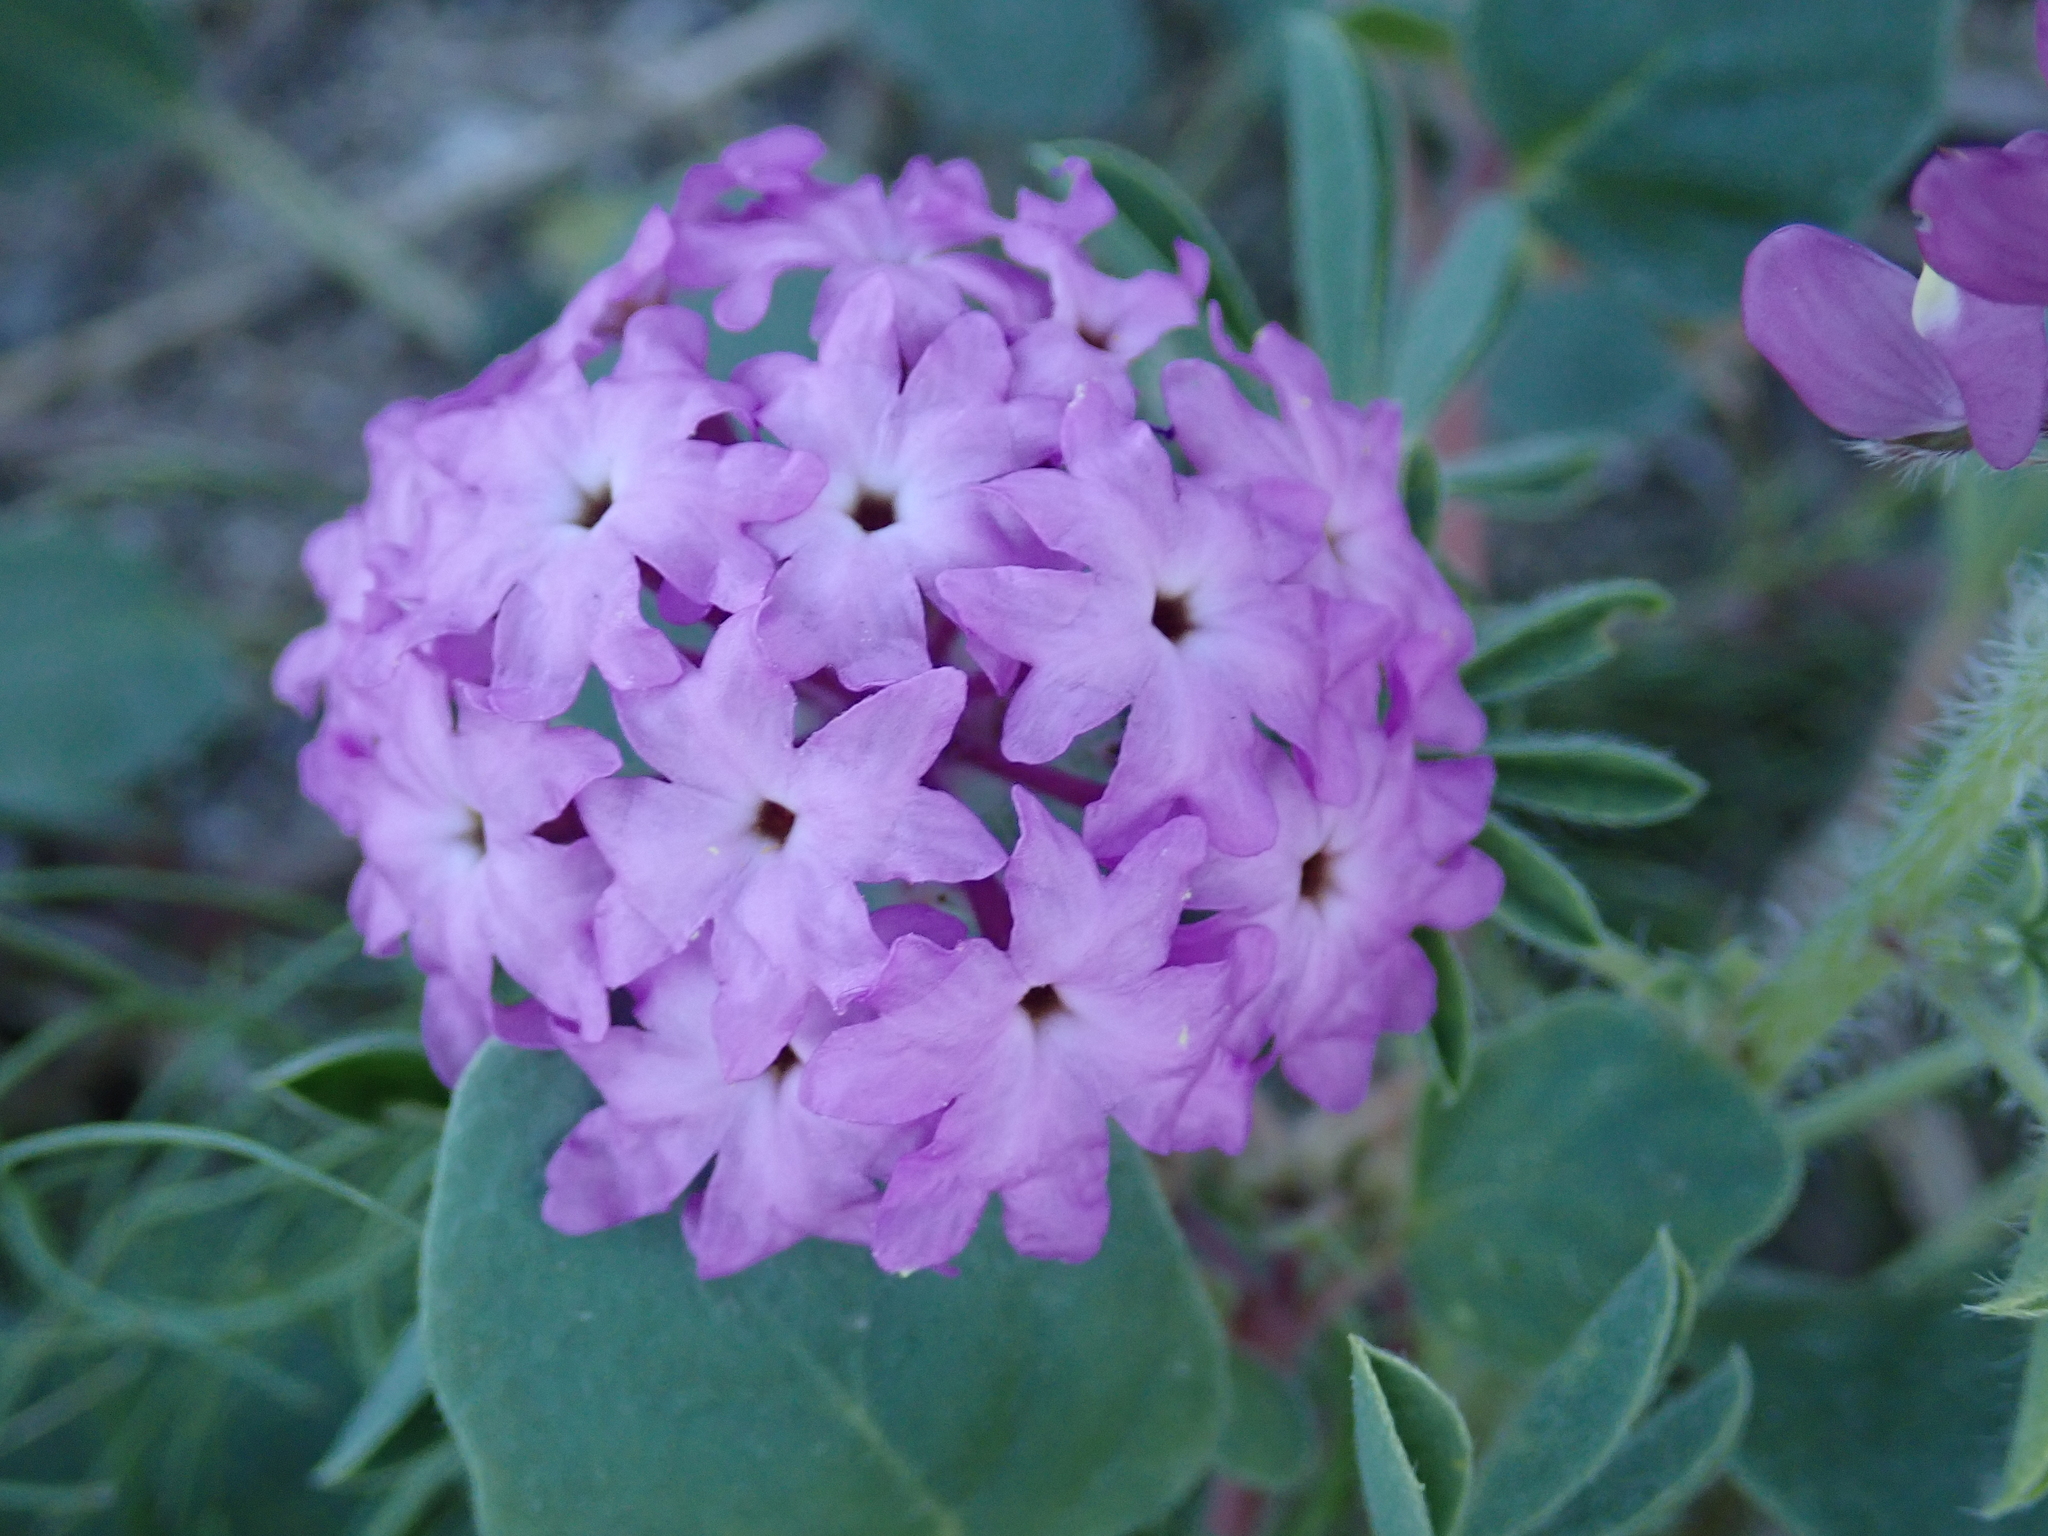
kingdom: Plantae
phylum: Tracheophyta
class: Magnoliopsida
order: Caryophyllales
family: Nyctaginaceae
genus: Abronia
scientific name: Abronia villosa
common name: Desert sand-verbena
